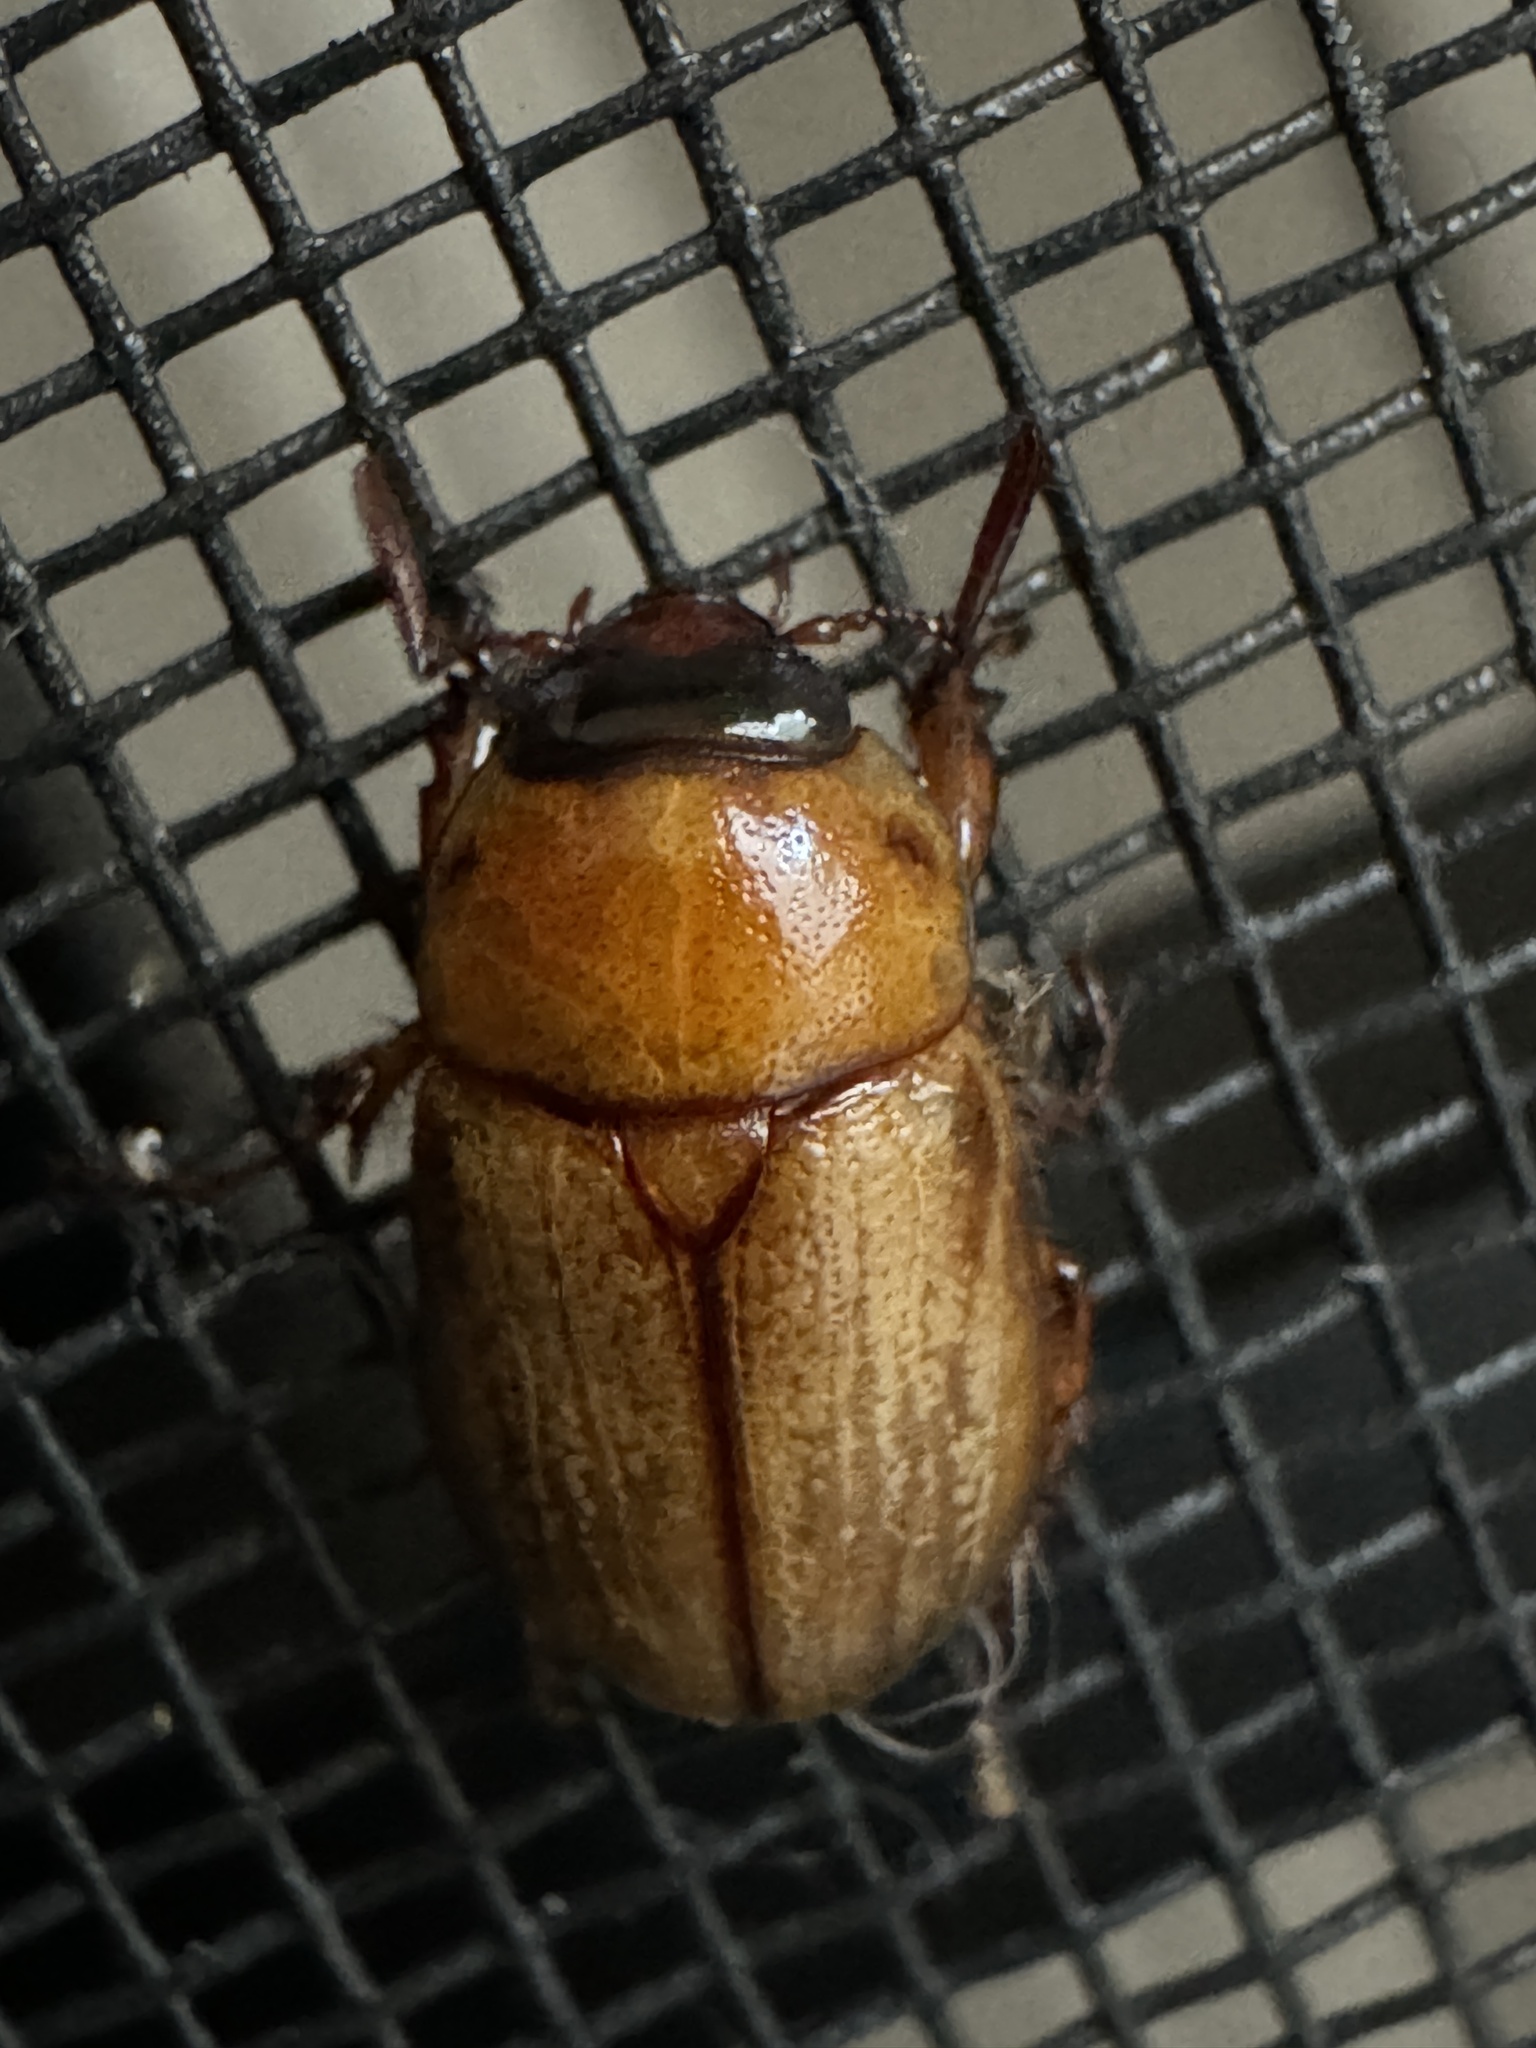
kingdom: Animalia
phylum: Arthropoda
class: Insecta
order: Coleoptera
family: Scarabaeidae
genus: Cyclocephala
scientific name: Cyclocephala lurida
